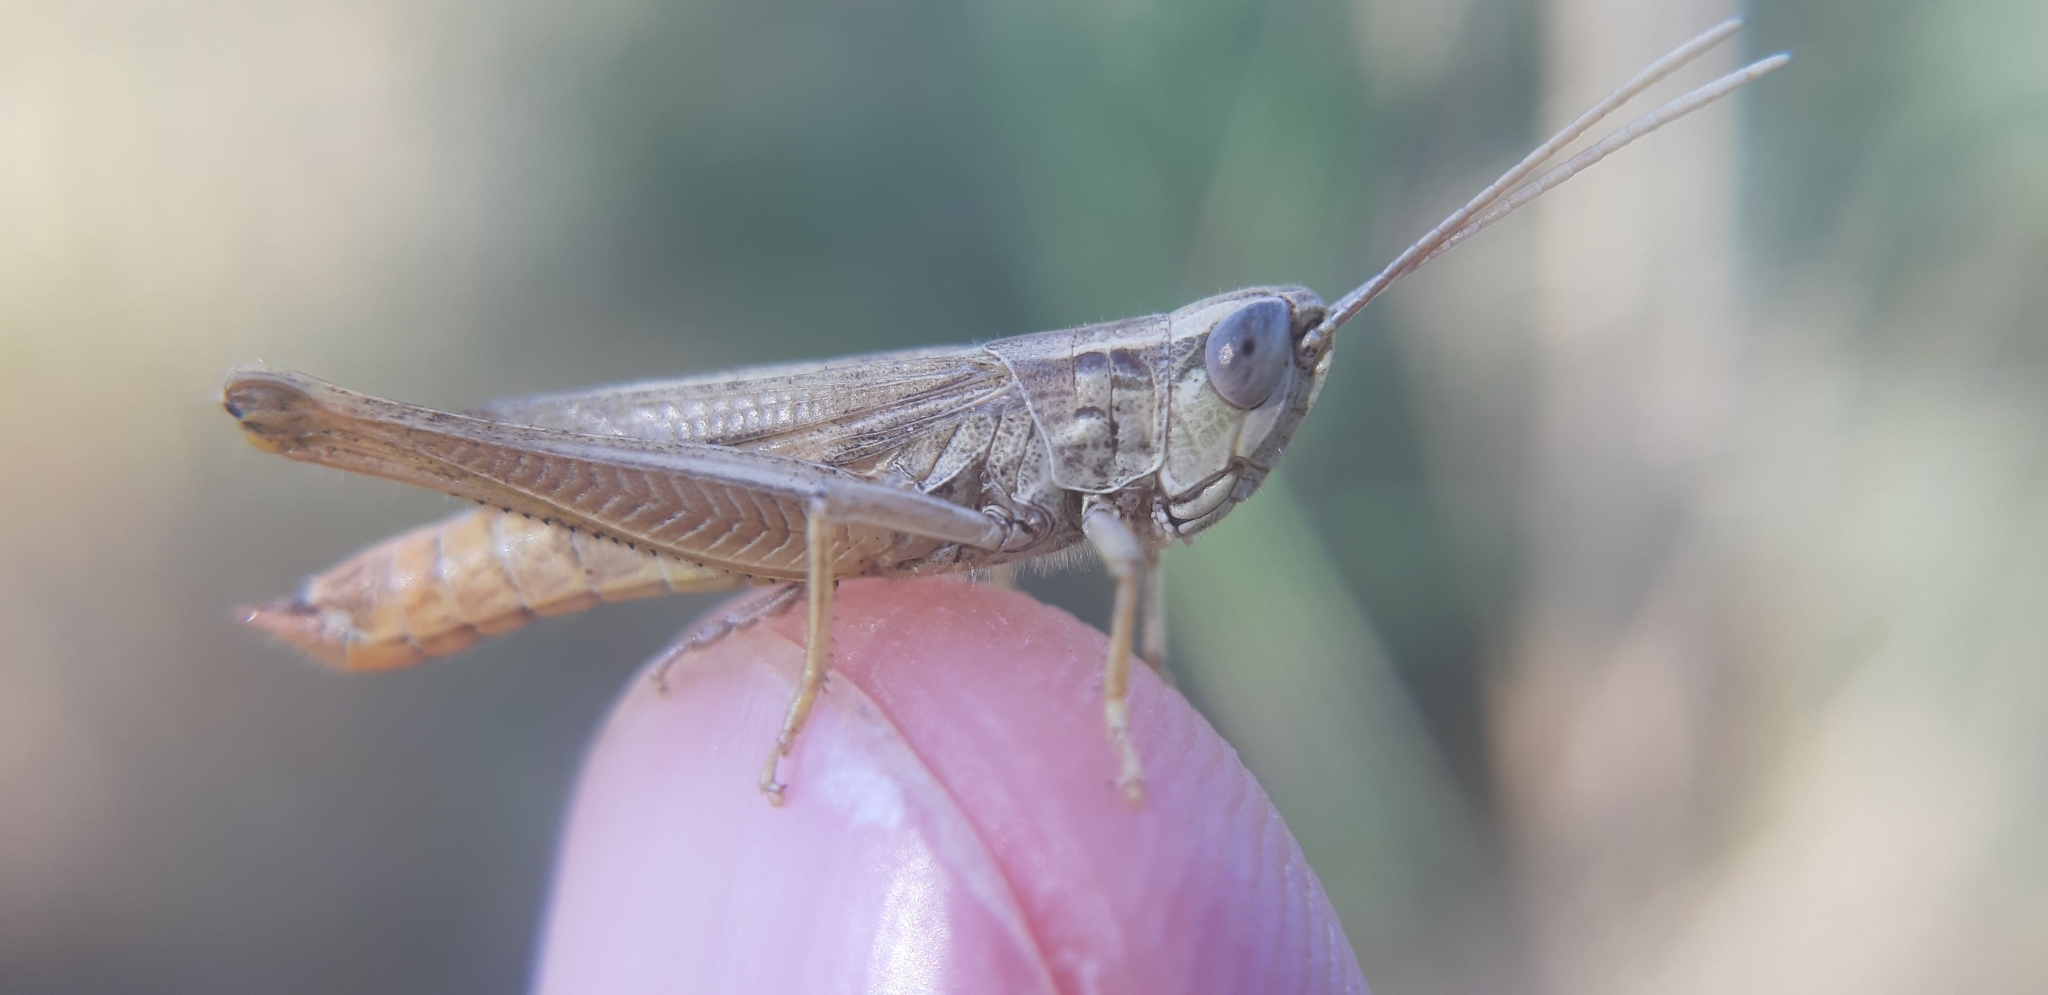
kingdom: Animalia
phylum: Arthropoda
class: Insecta
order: Orthoptera
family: Acrididae
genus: Euchorthippus
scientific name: Euchorthippus declivus
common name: Common straw grasshopper
